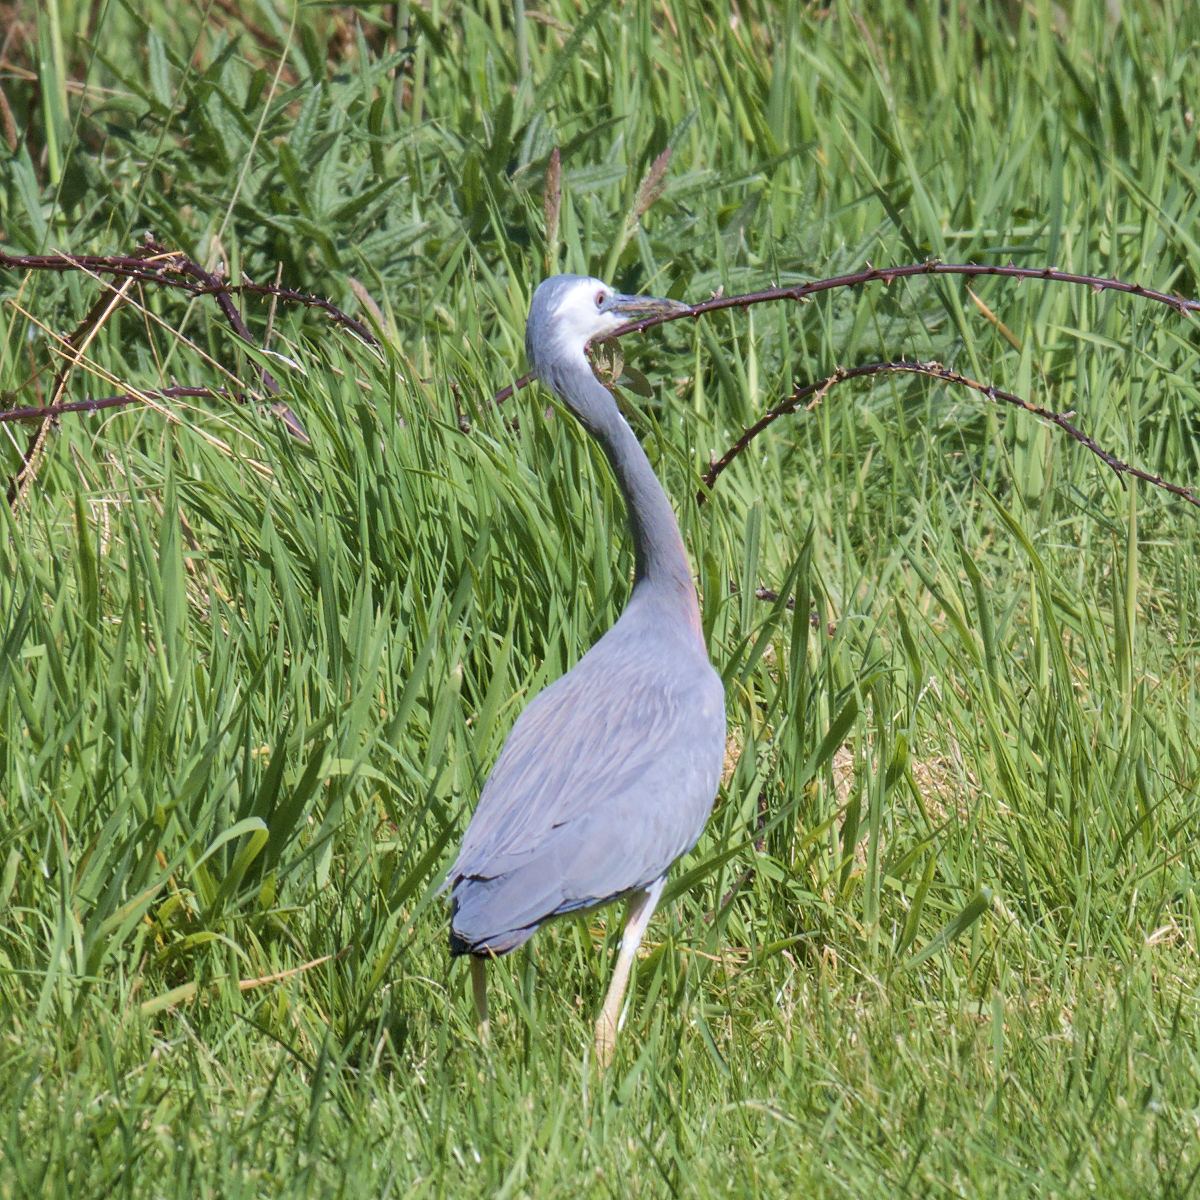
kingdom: Animalia
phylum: Chordata
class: Aves
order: Pelecaniformes
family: Ardeidae
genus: Egretta
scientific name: Egretta novaehollandiae
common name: White-faced heron
